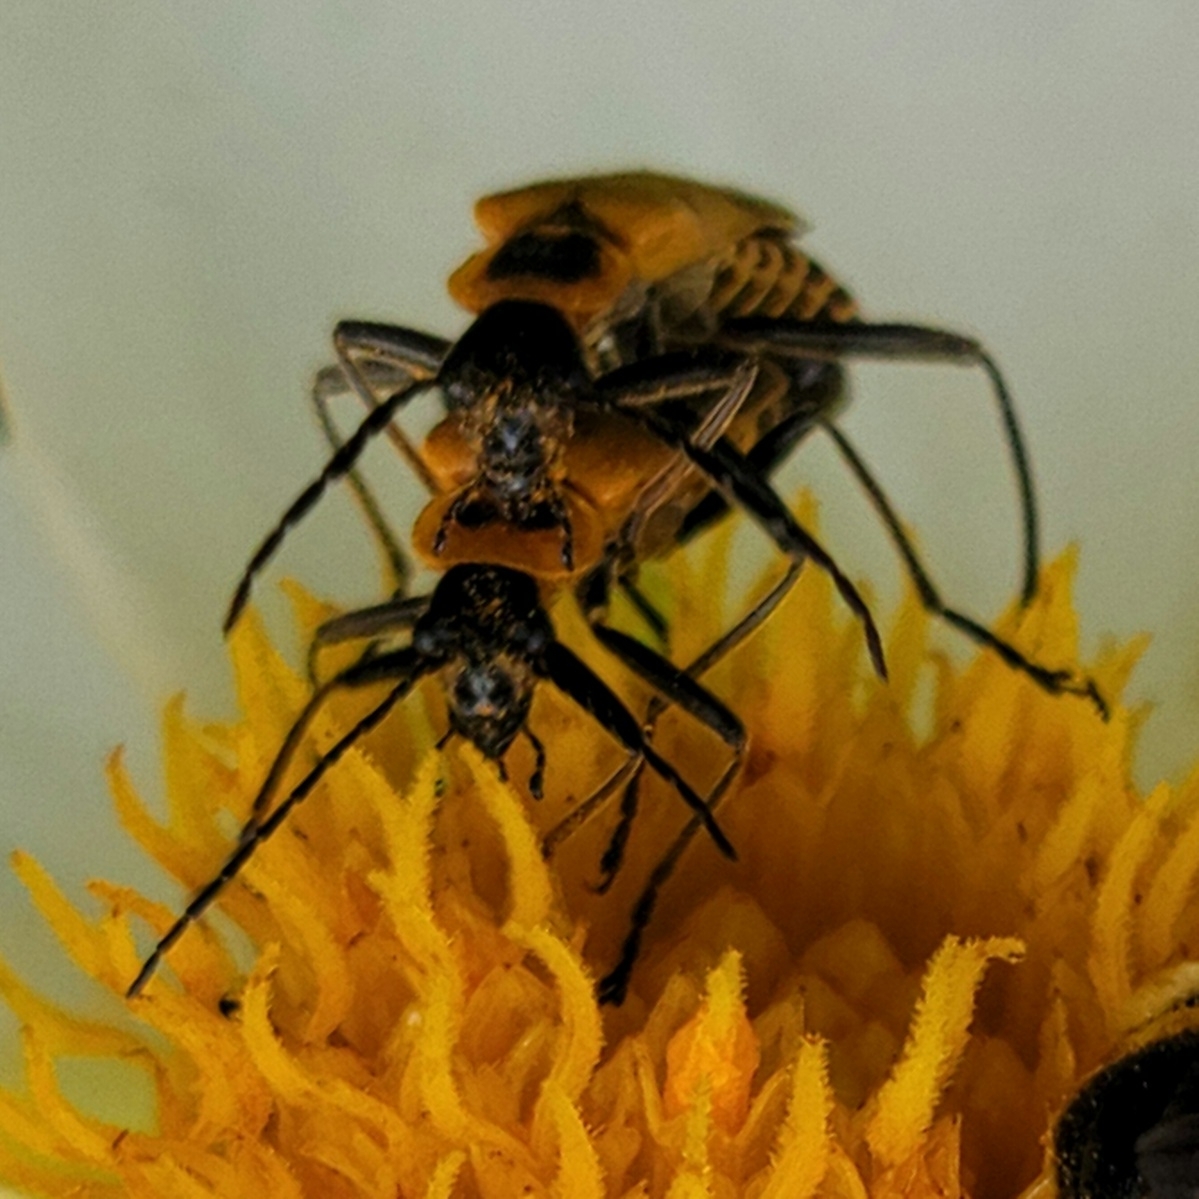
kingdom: Animalia
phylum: Arthropoda
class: Insecta
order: Coleoptera
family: Cantharidae
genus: Chauliognathus
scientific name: Chauliognathus pensylvanicus
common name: Goldenrod soldier beetle
